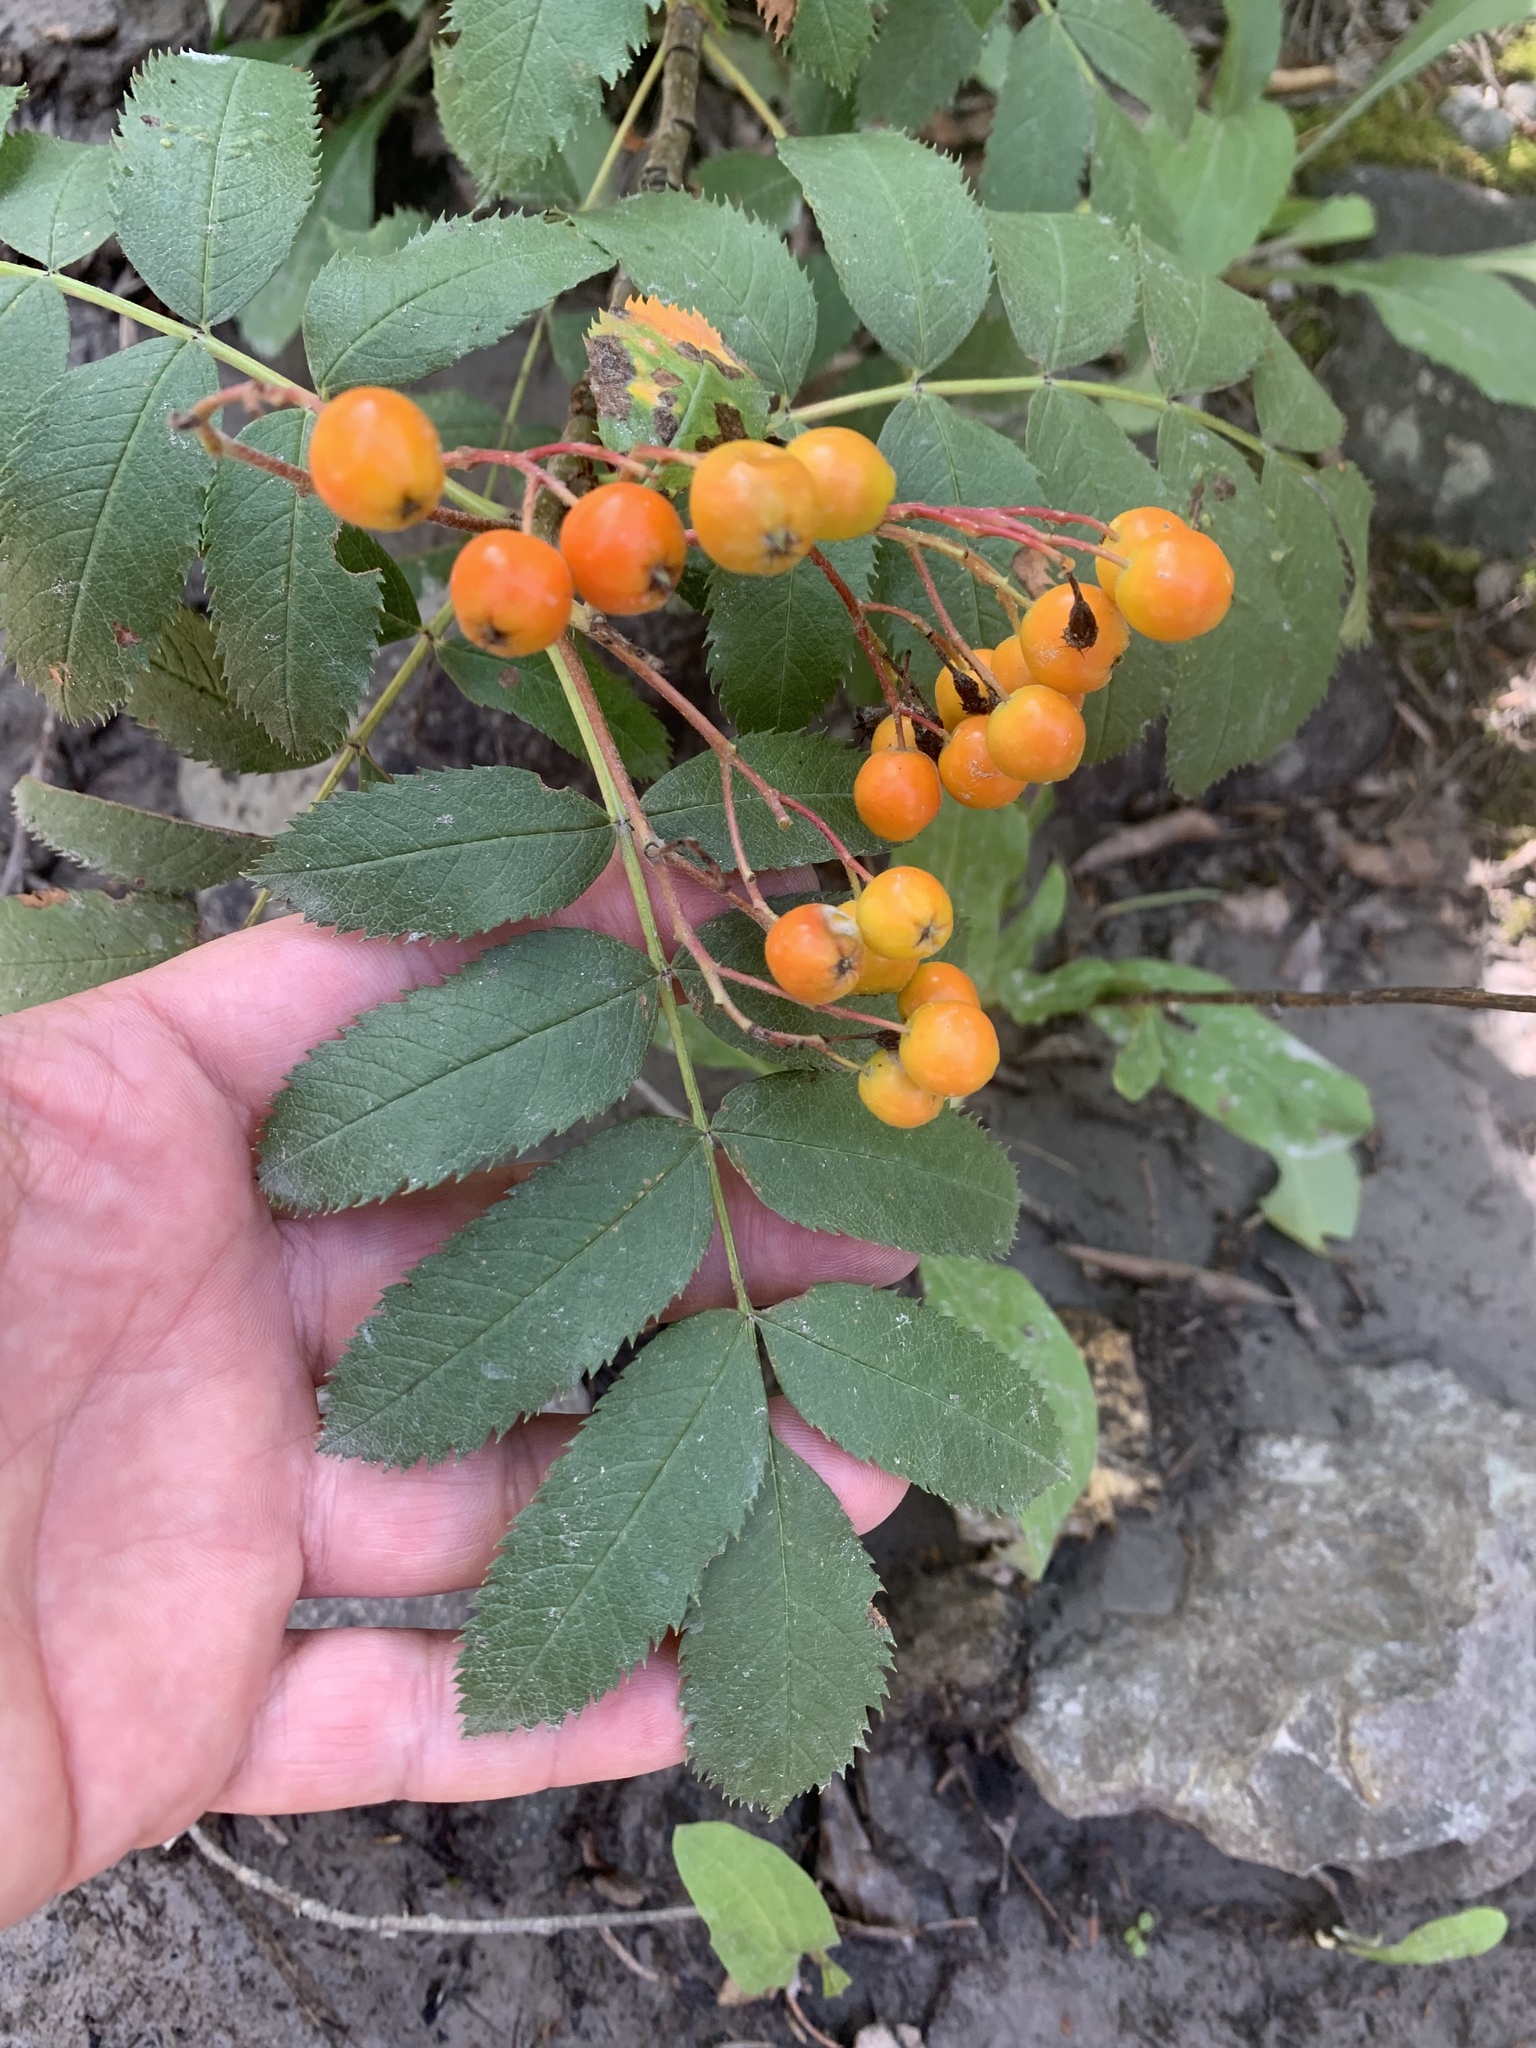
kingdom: Plantae
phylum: Tracheophyta
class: Magnoliopsida
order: Rosales
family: Rosaceae
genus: Sorbus
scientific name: Sorbus scopulina
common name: Greene's mountain-ash
